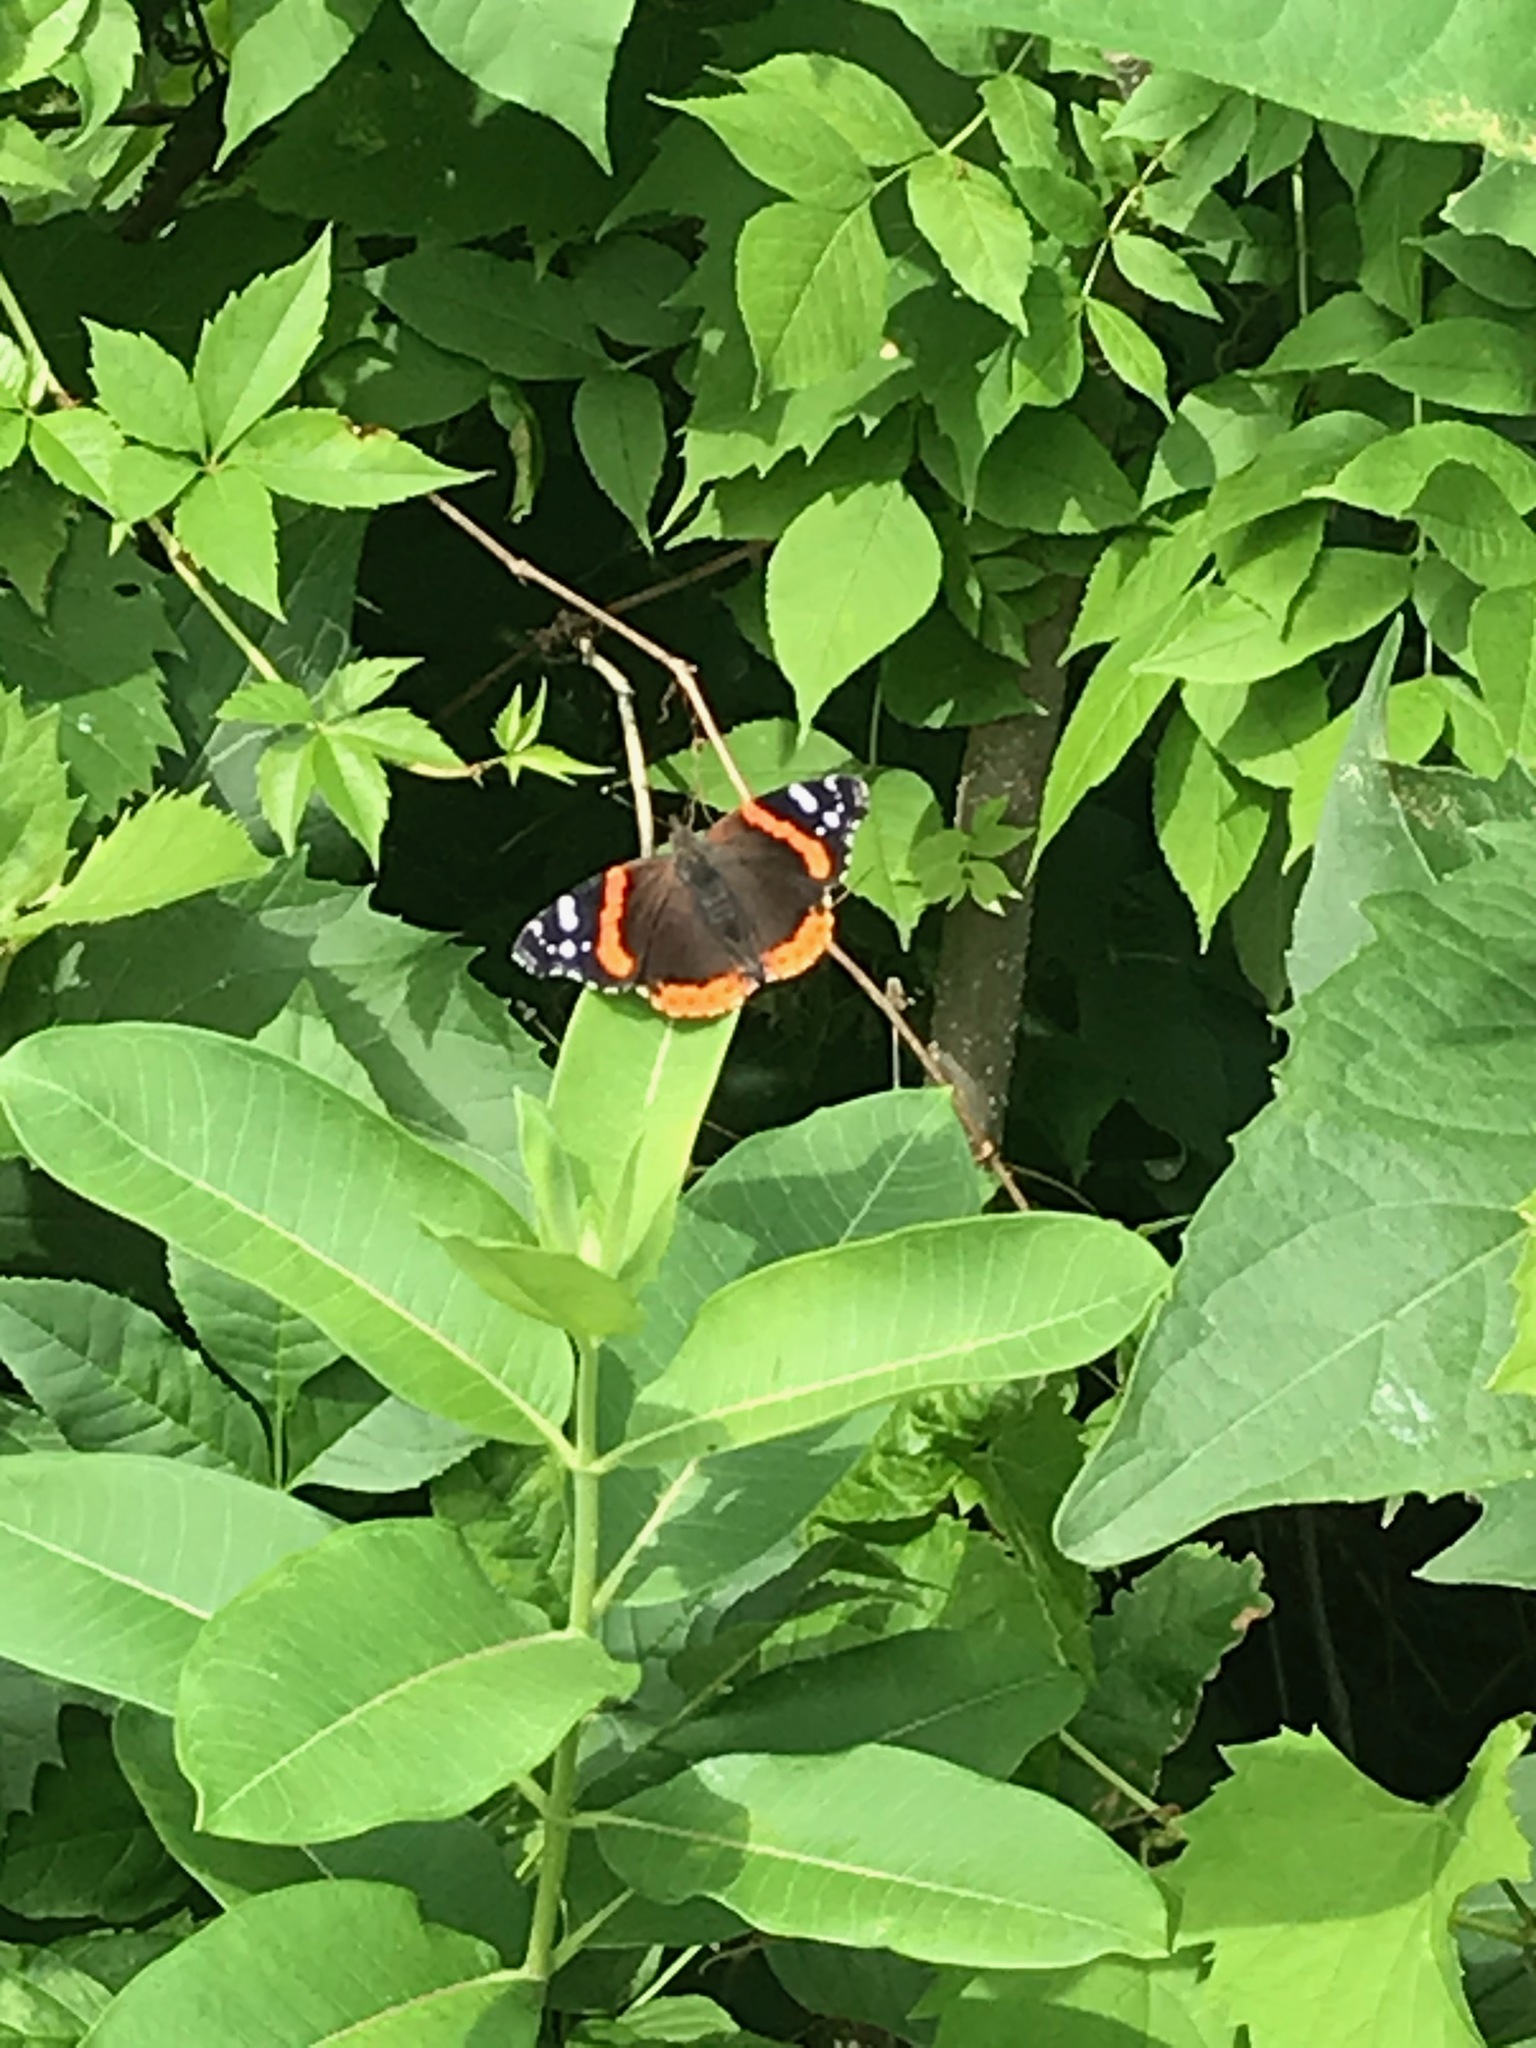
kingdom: Animalia
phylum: Arthropoda
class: Insecta
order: Lepidoptera
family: Nymphalidae
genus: Vanessa
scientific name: Vanessa atalanta
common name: Red admiral
